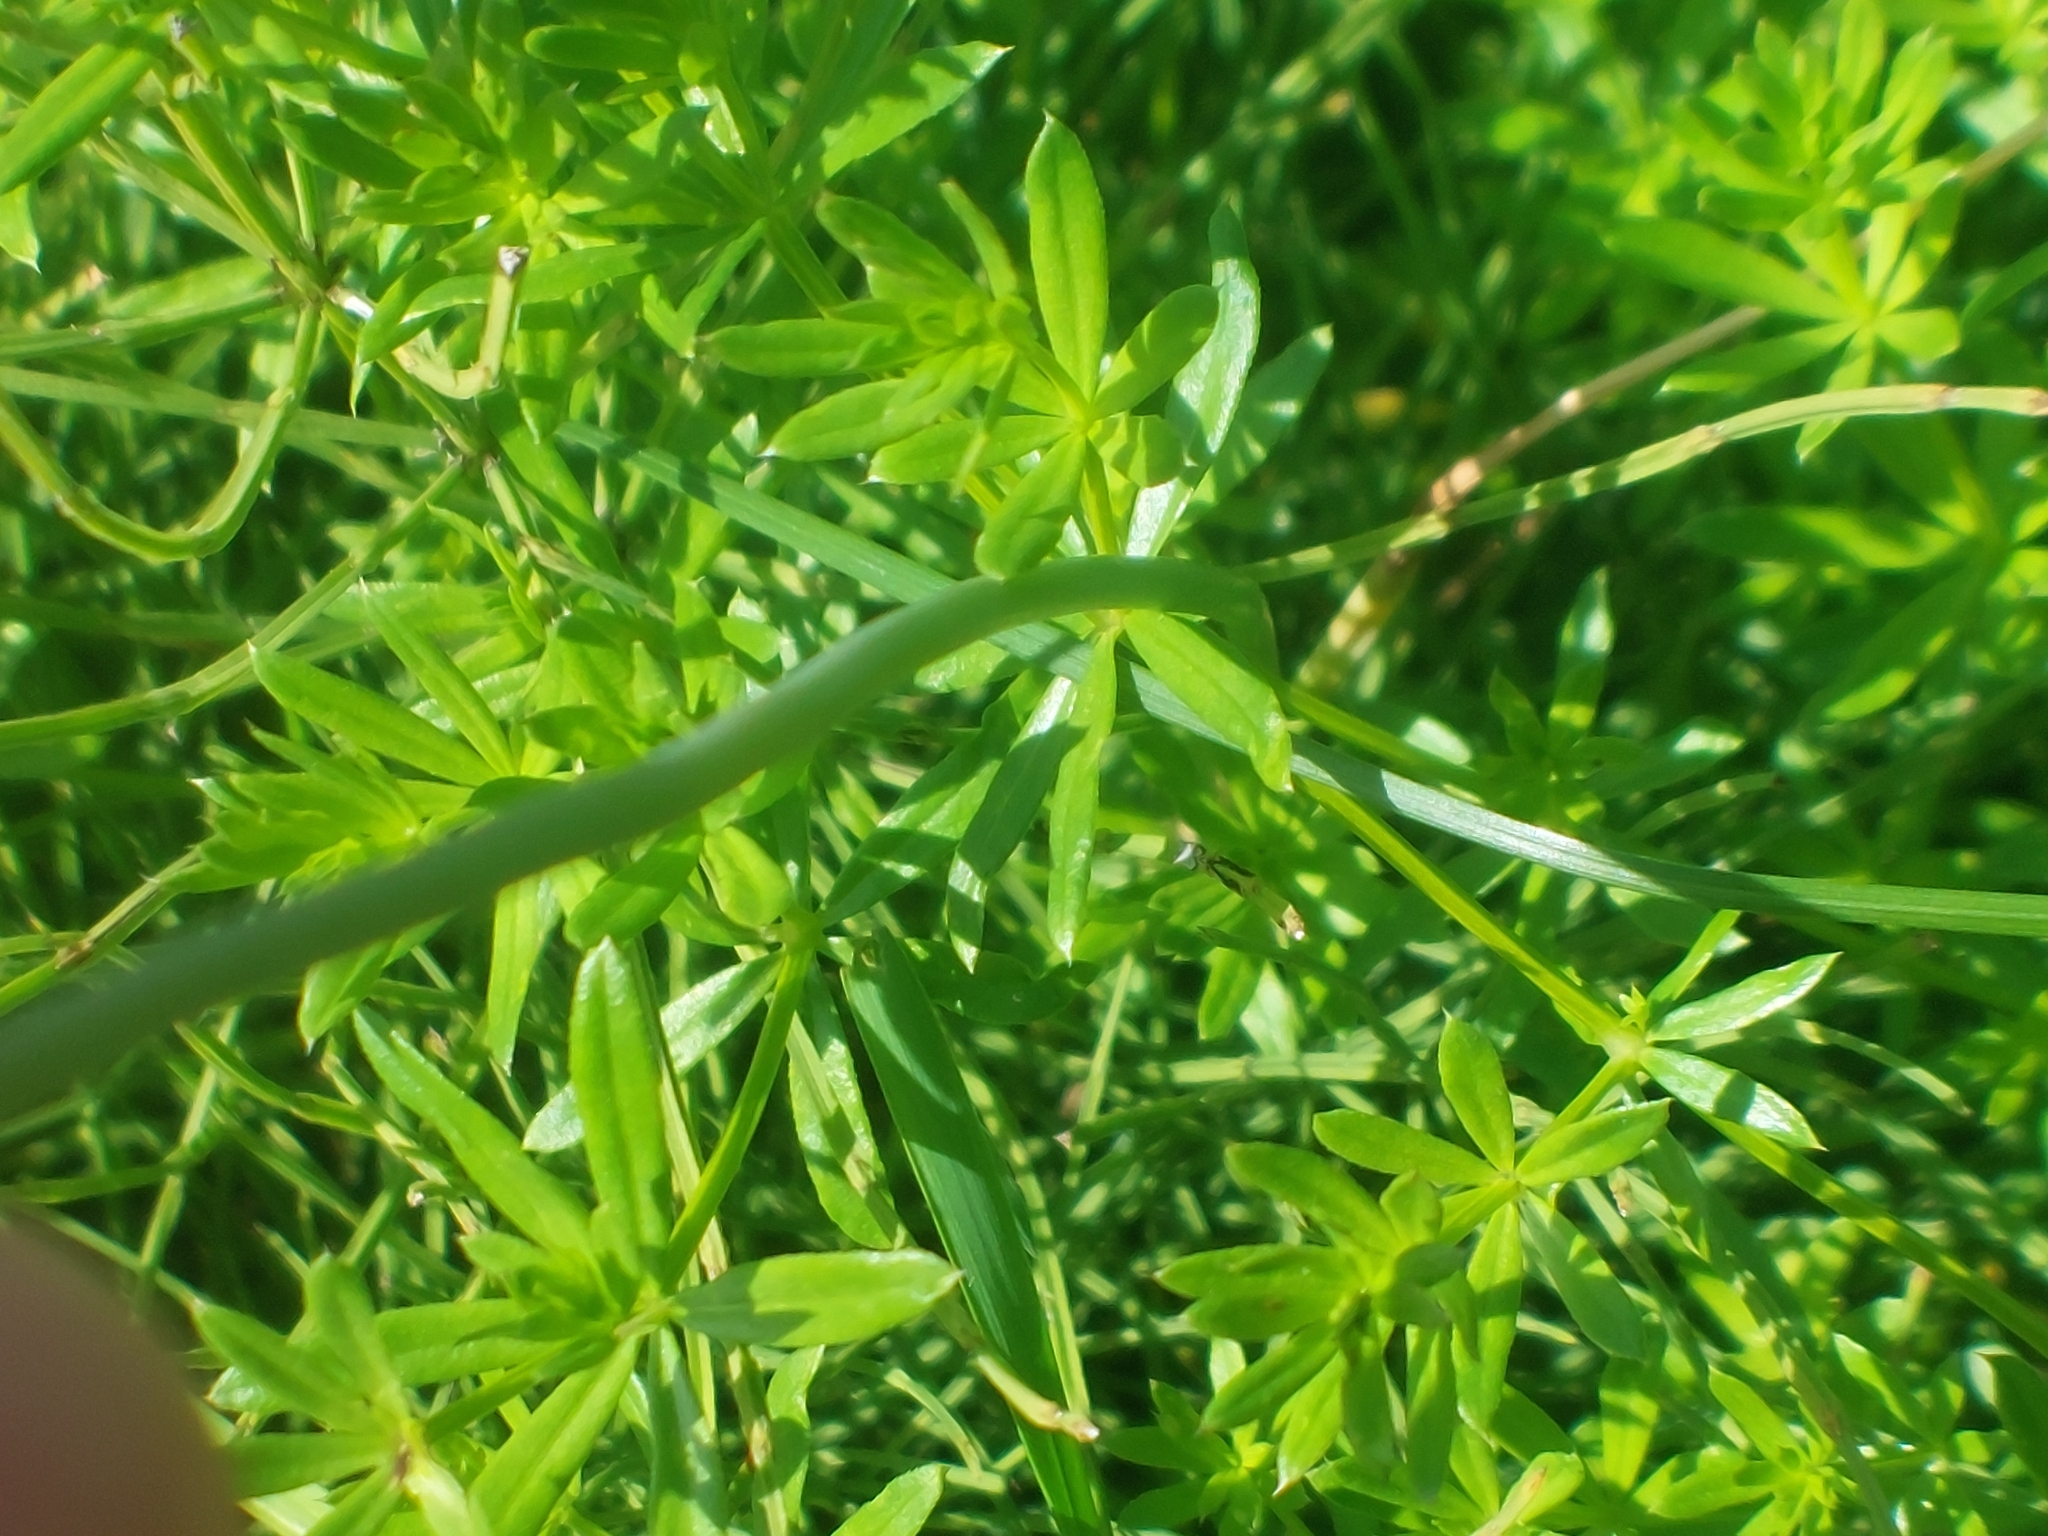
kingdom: Plantae
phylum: Tracheophyta
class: Liliopsida
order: Asparagales
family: Amaryllidaceae
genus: Allium
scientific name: Allium oleraceum
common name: Field garlic
